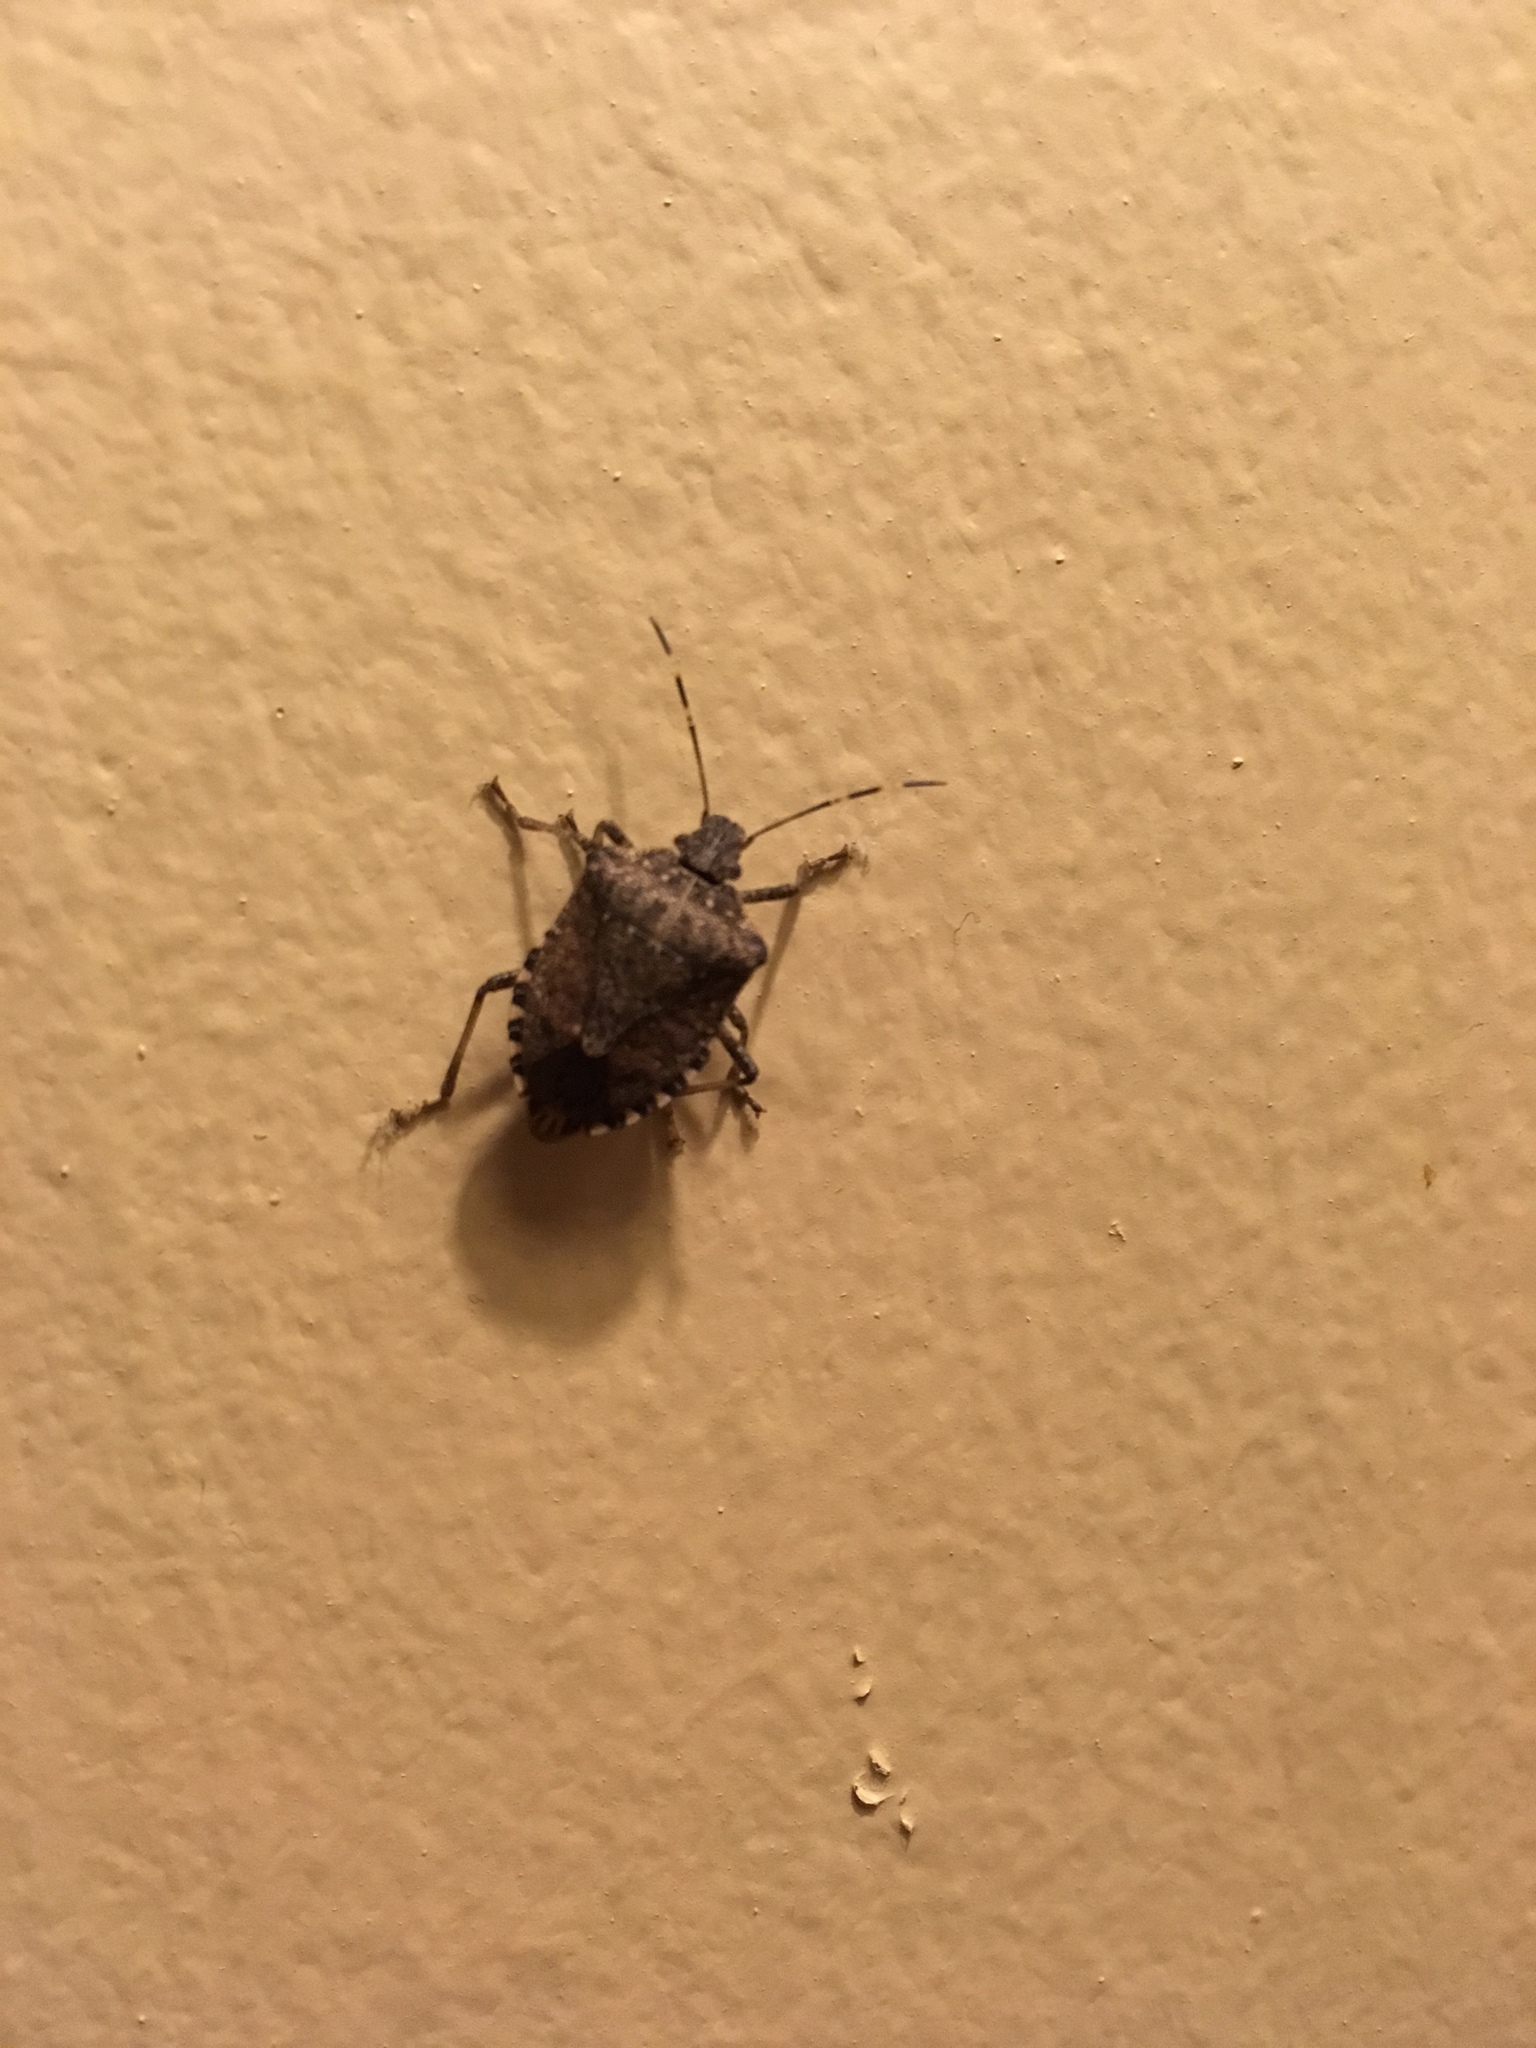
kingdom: Animalia
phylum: Arthropoda
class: Insecta
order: Hemiptera
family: Pentatomidae
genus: Halyomorpha
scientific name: Halyomorpha halys
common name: Brown marmorated stink bug
